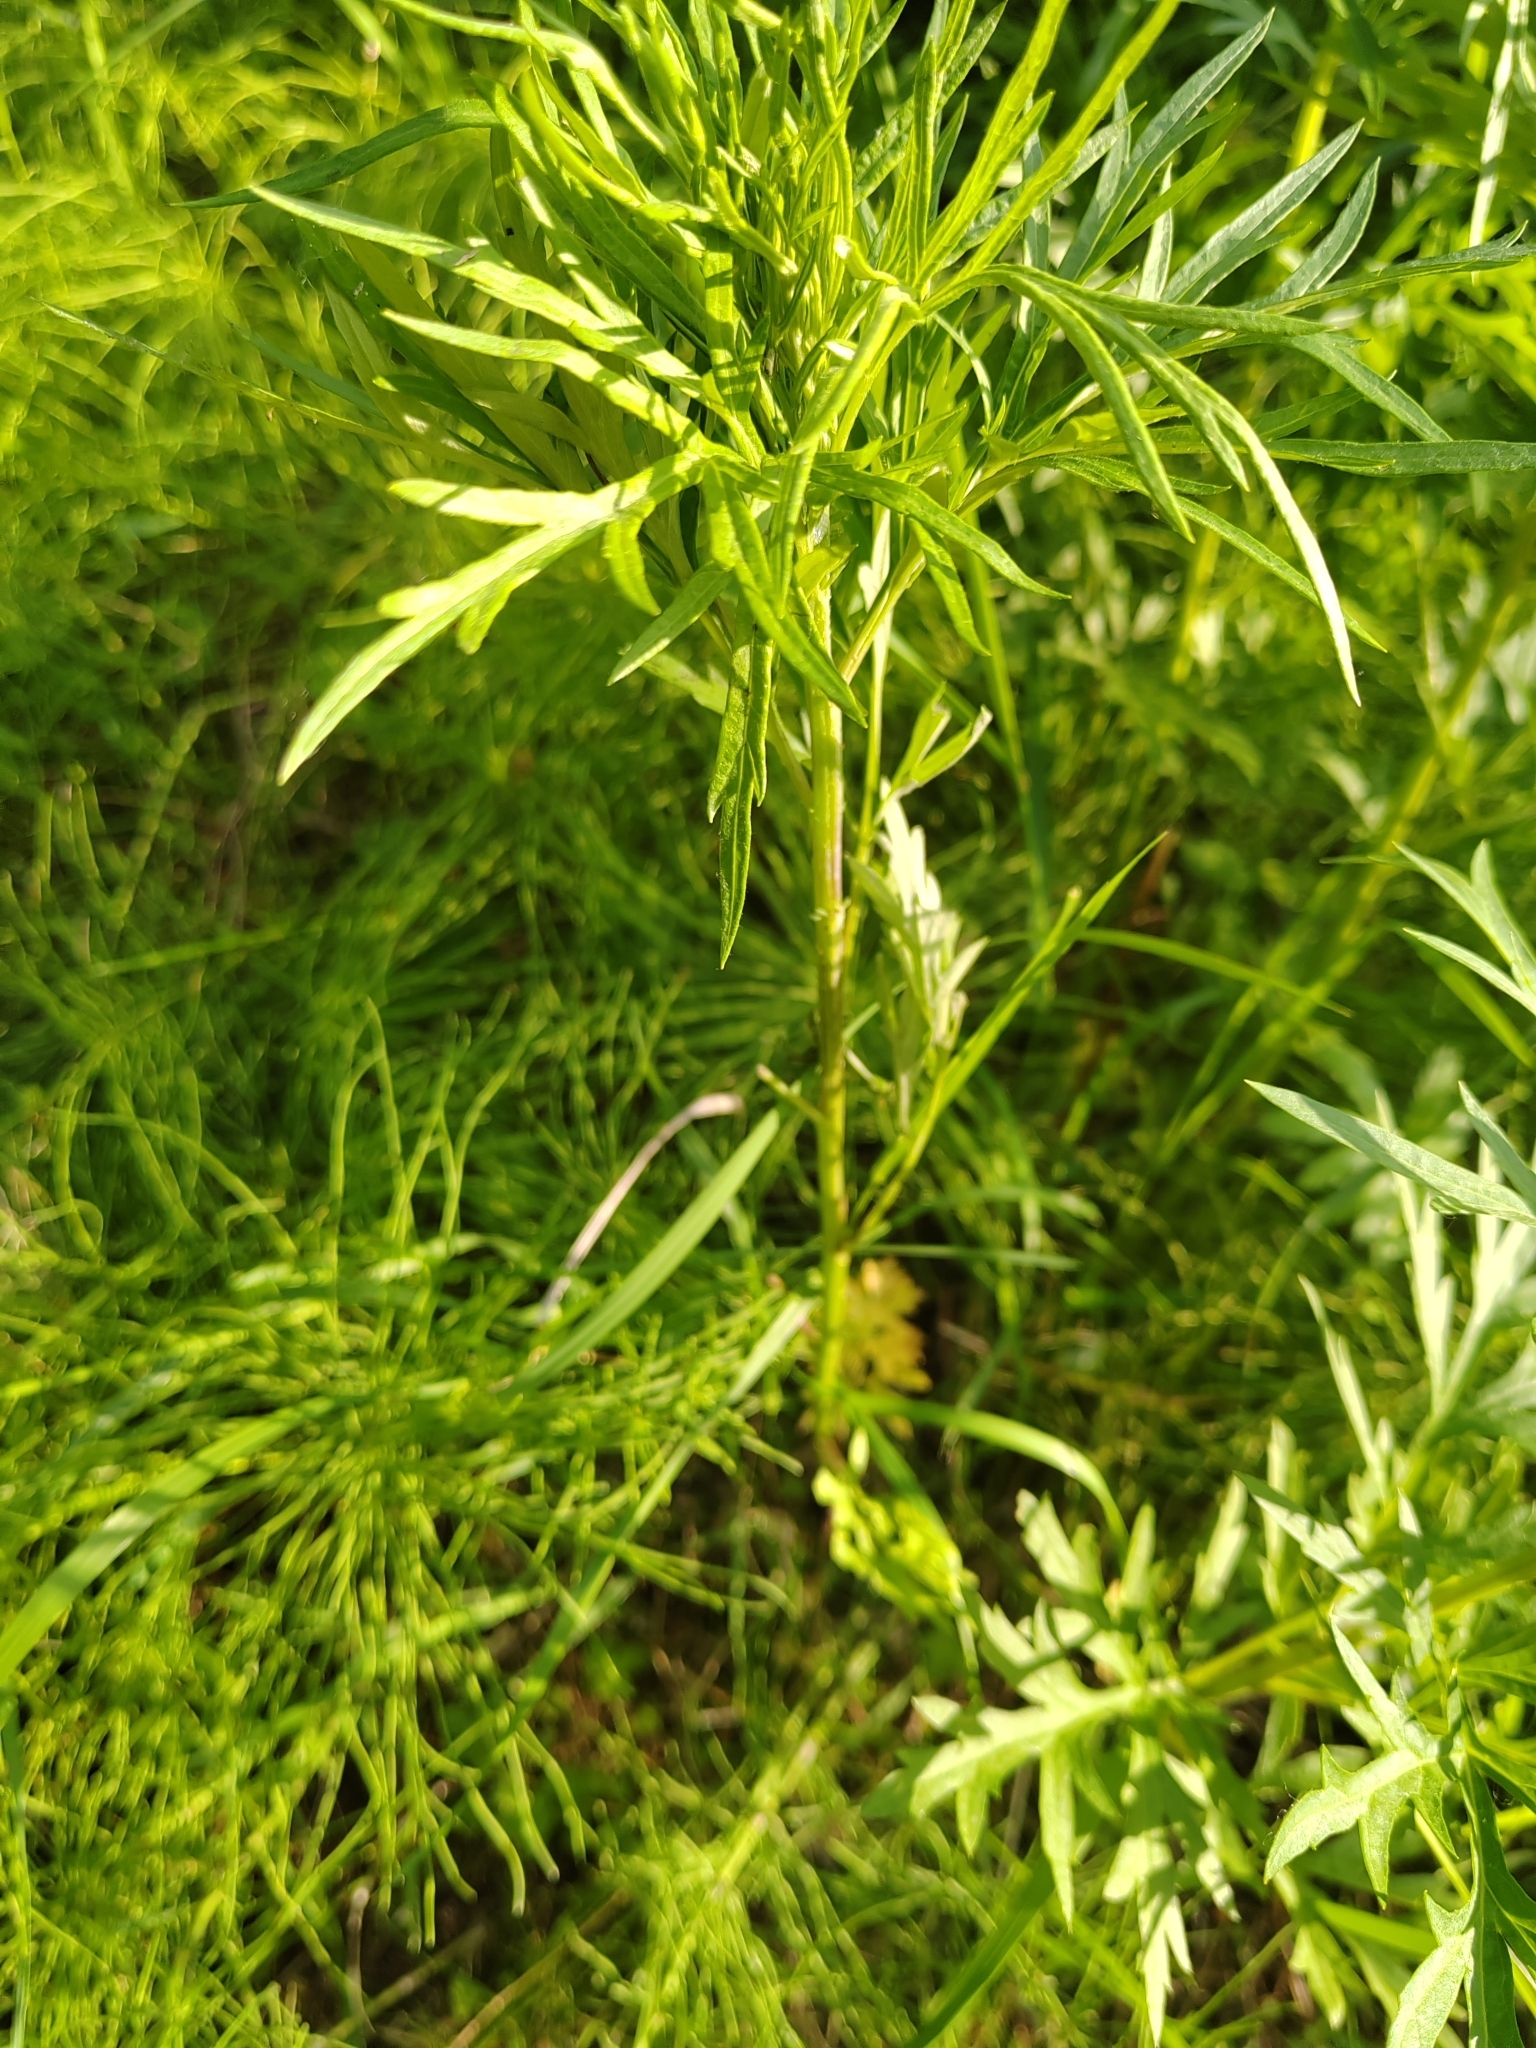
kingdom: Plantae
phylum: Tracheophyta
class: Magnoliopsida
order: Asterales
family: Asteraceae
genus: Artemisia
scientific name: Artemisia vulgaris
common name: Mugwort
